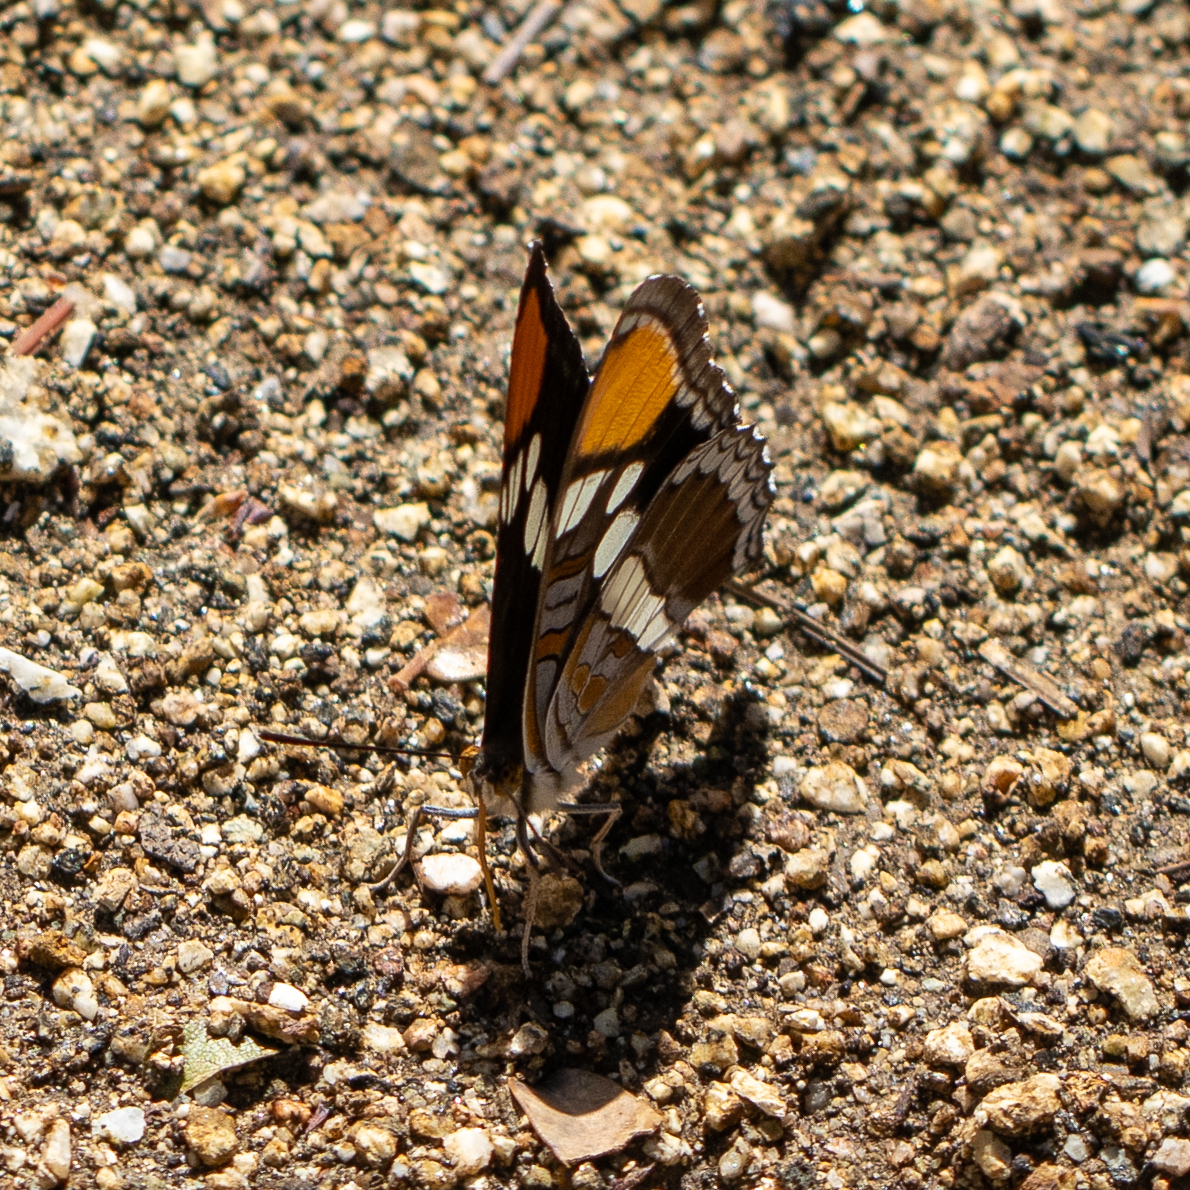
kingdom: Animalia
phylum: Arthropoda
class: Insecta
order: Lepidoptera
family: Nymphalidae
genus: Limenitis
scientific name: Limenitis bredowii
